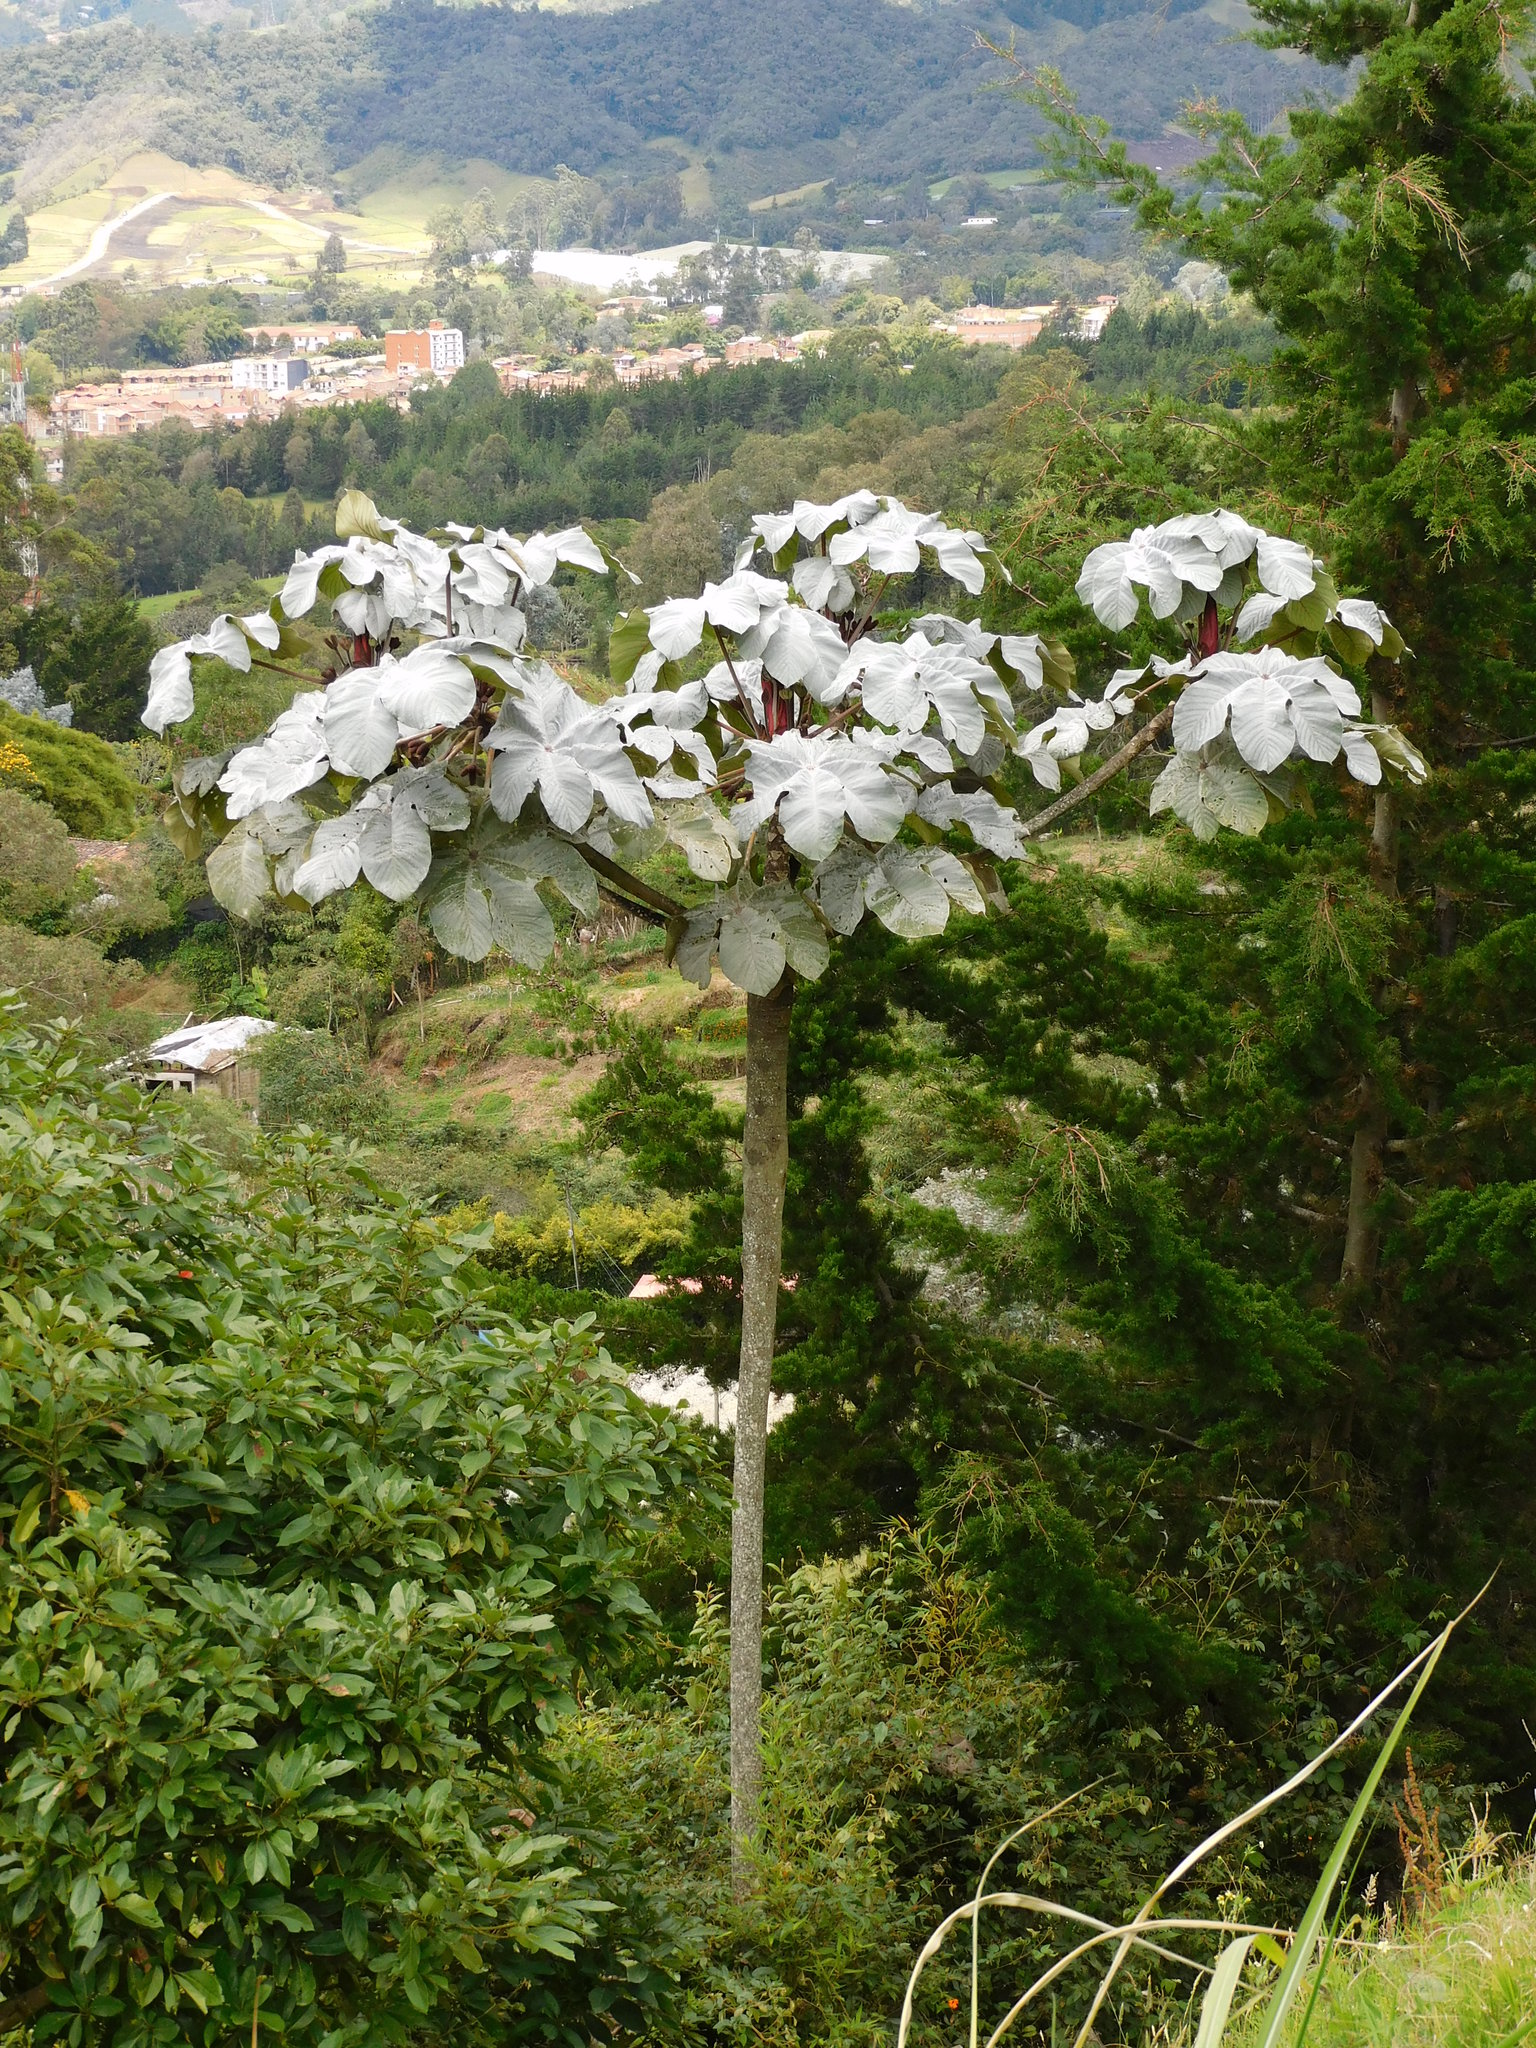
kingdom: Plantae
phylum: Tracheophyta
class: Magnoliopsida
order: Rosales
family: Urticaceae
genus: Cecropia
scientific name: Cecropia telenitida
